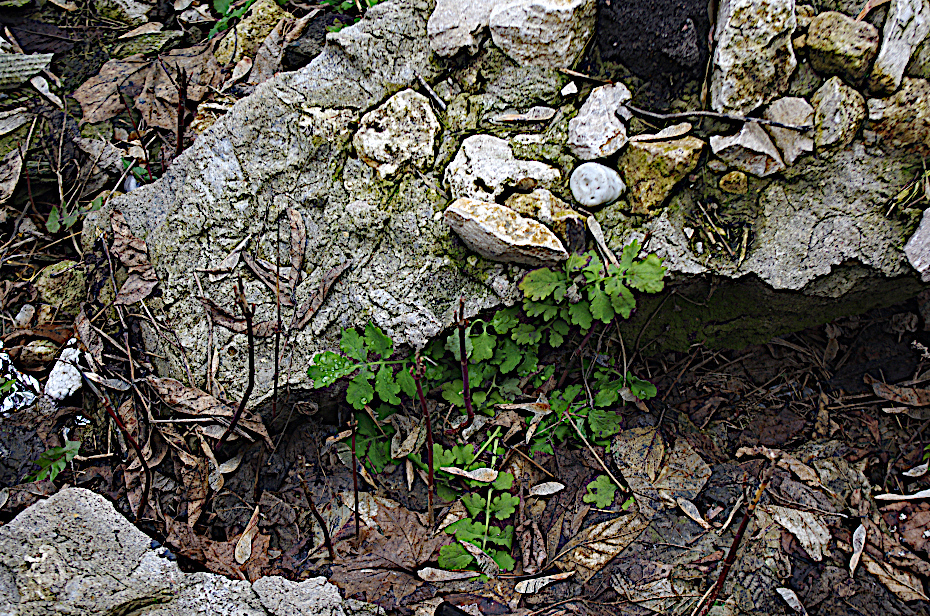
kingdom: Plantae
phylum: Tracheophyta
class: Magnoliopsida
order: Ranunculales
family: Papaveraceae
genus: Chelidonium
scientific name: Chelidonium majus
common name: Greater celandine
